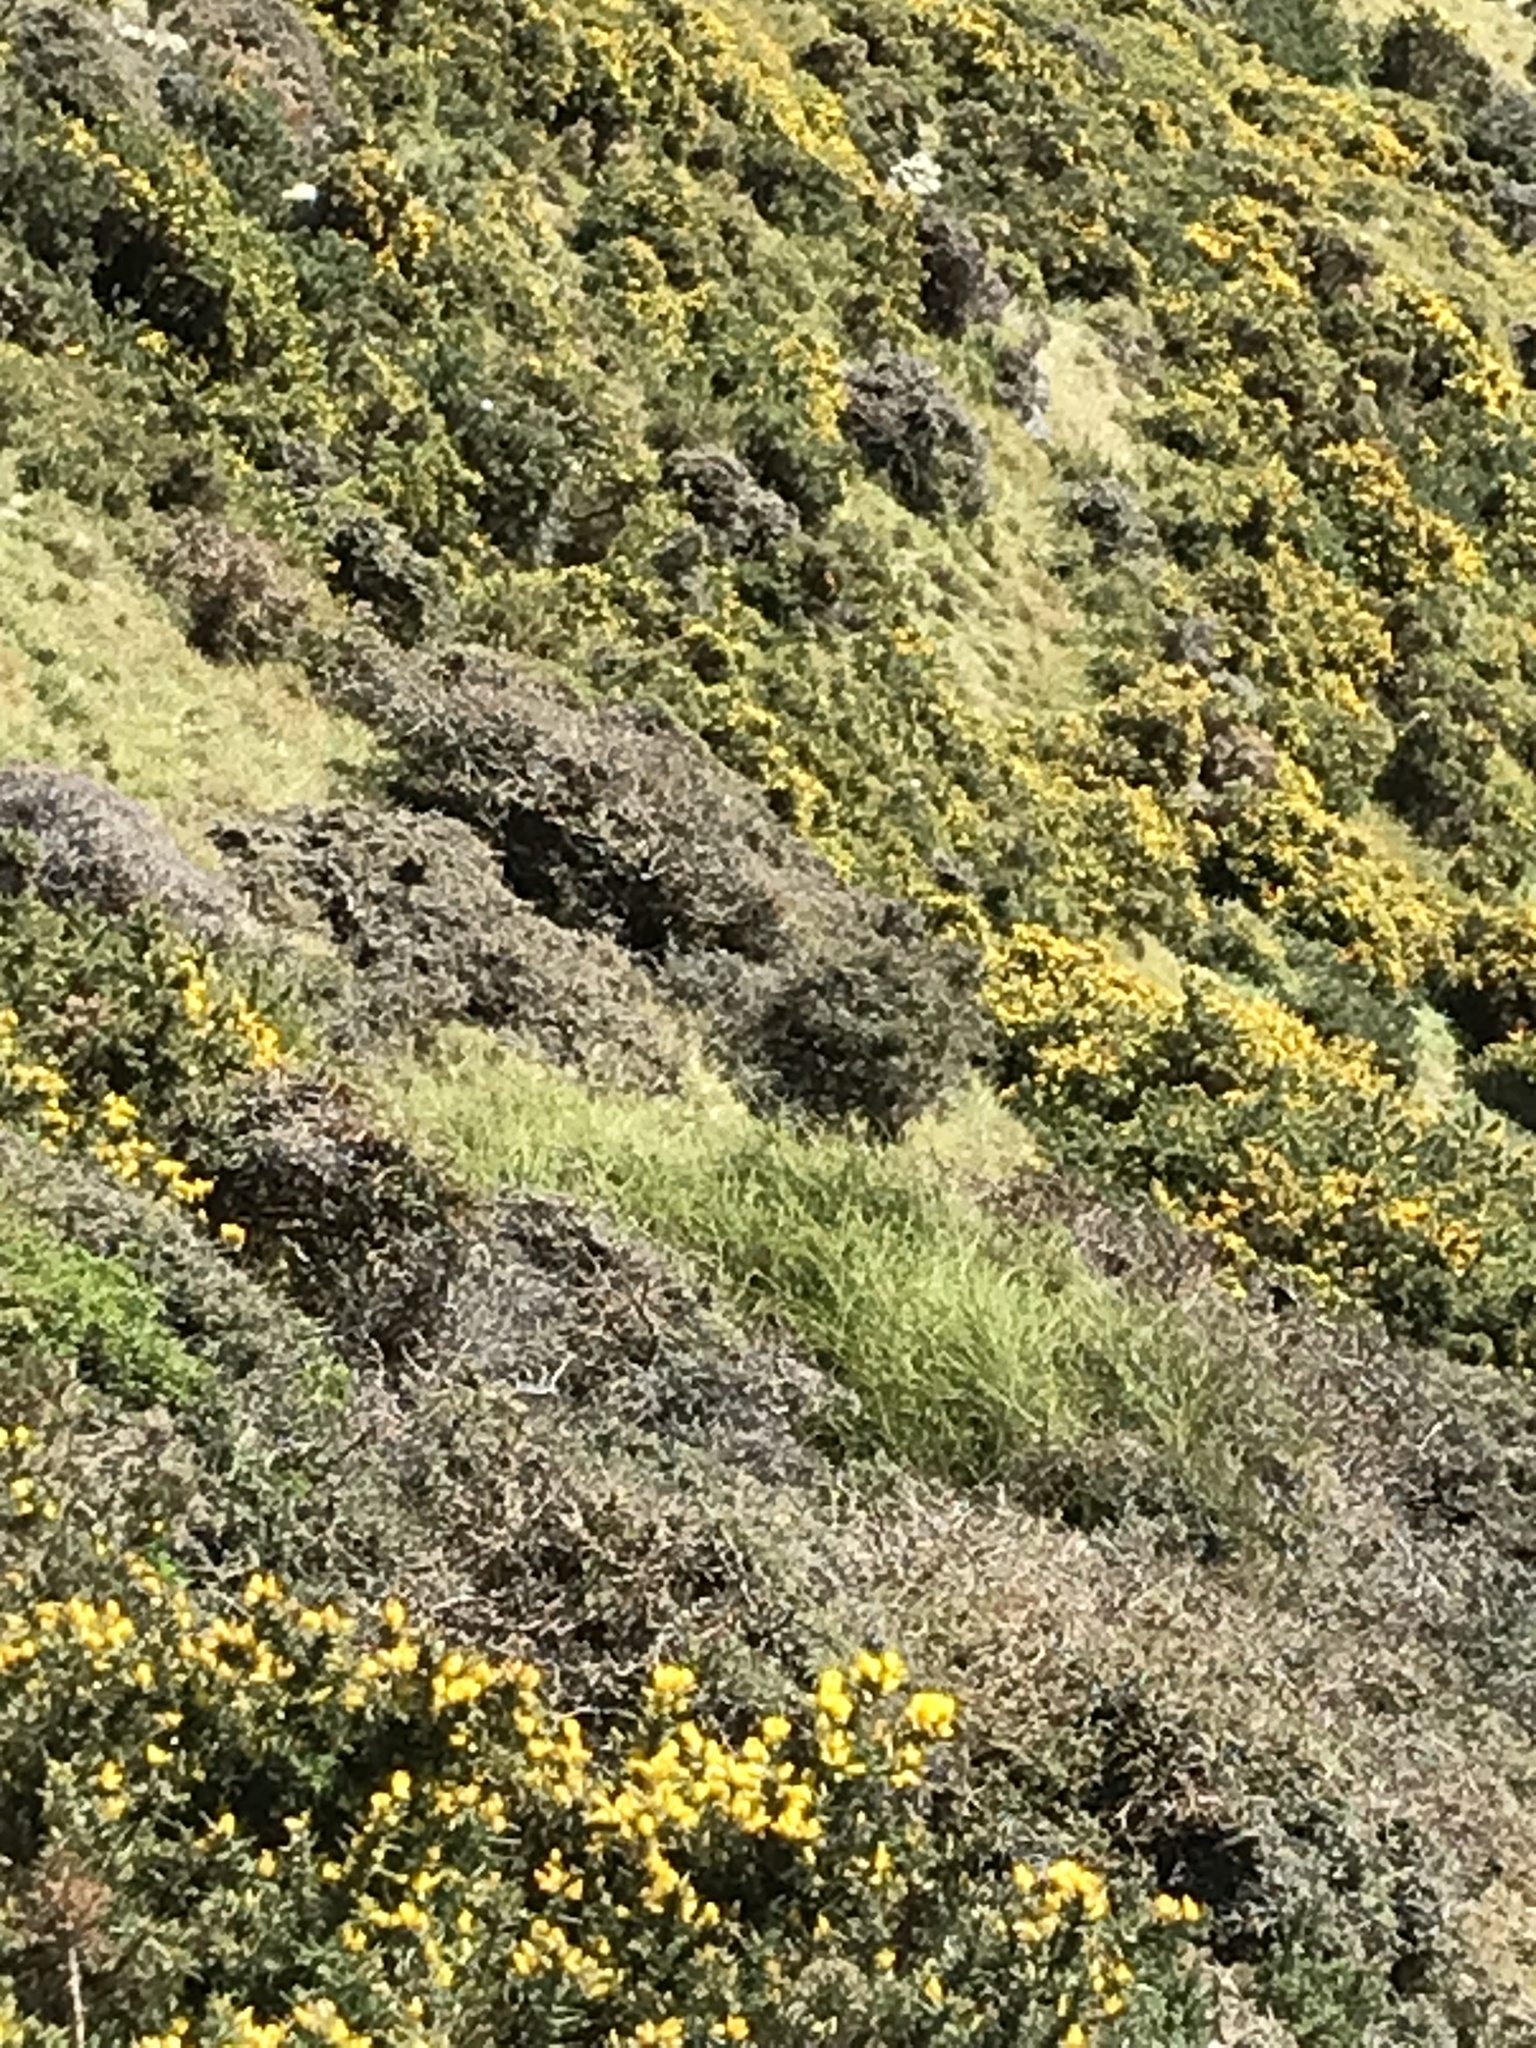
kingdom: Plantae
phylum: Tracheophyta
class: Magnoliopsida
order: Ranunculales
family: Ranunculaceae
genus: Clematis
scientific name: Clematis afoliata
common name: Rush-stem clematis
